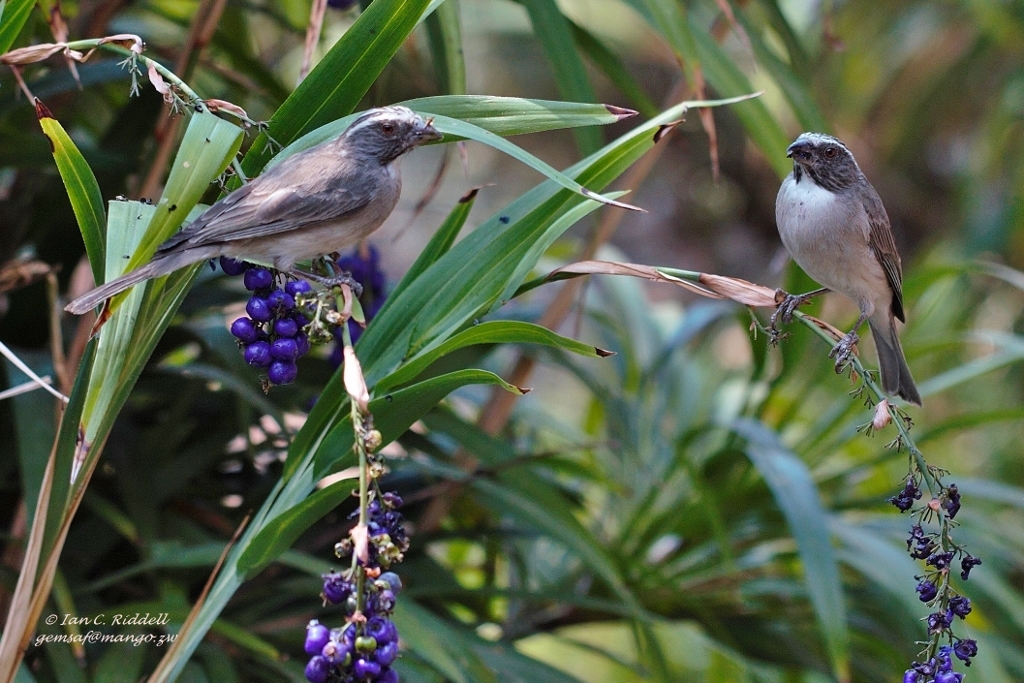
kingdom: Animalia
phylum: Chordata
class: Aves
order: Passeriformes
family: Fringillidae
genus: Crithagra
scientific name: Crithagra gularis
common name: Streaky-headed seedeater
